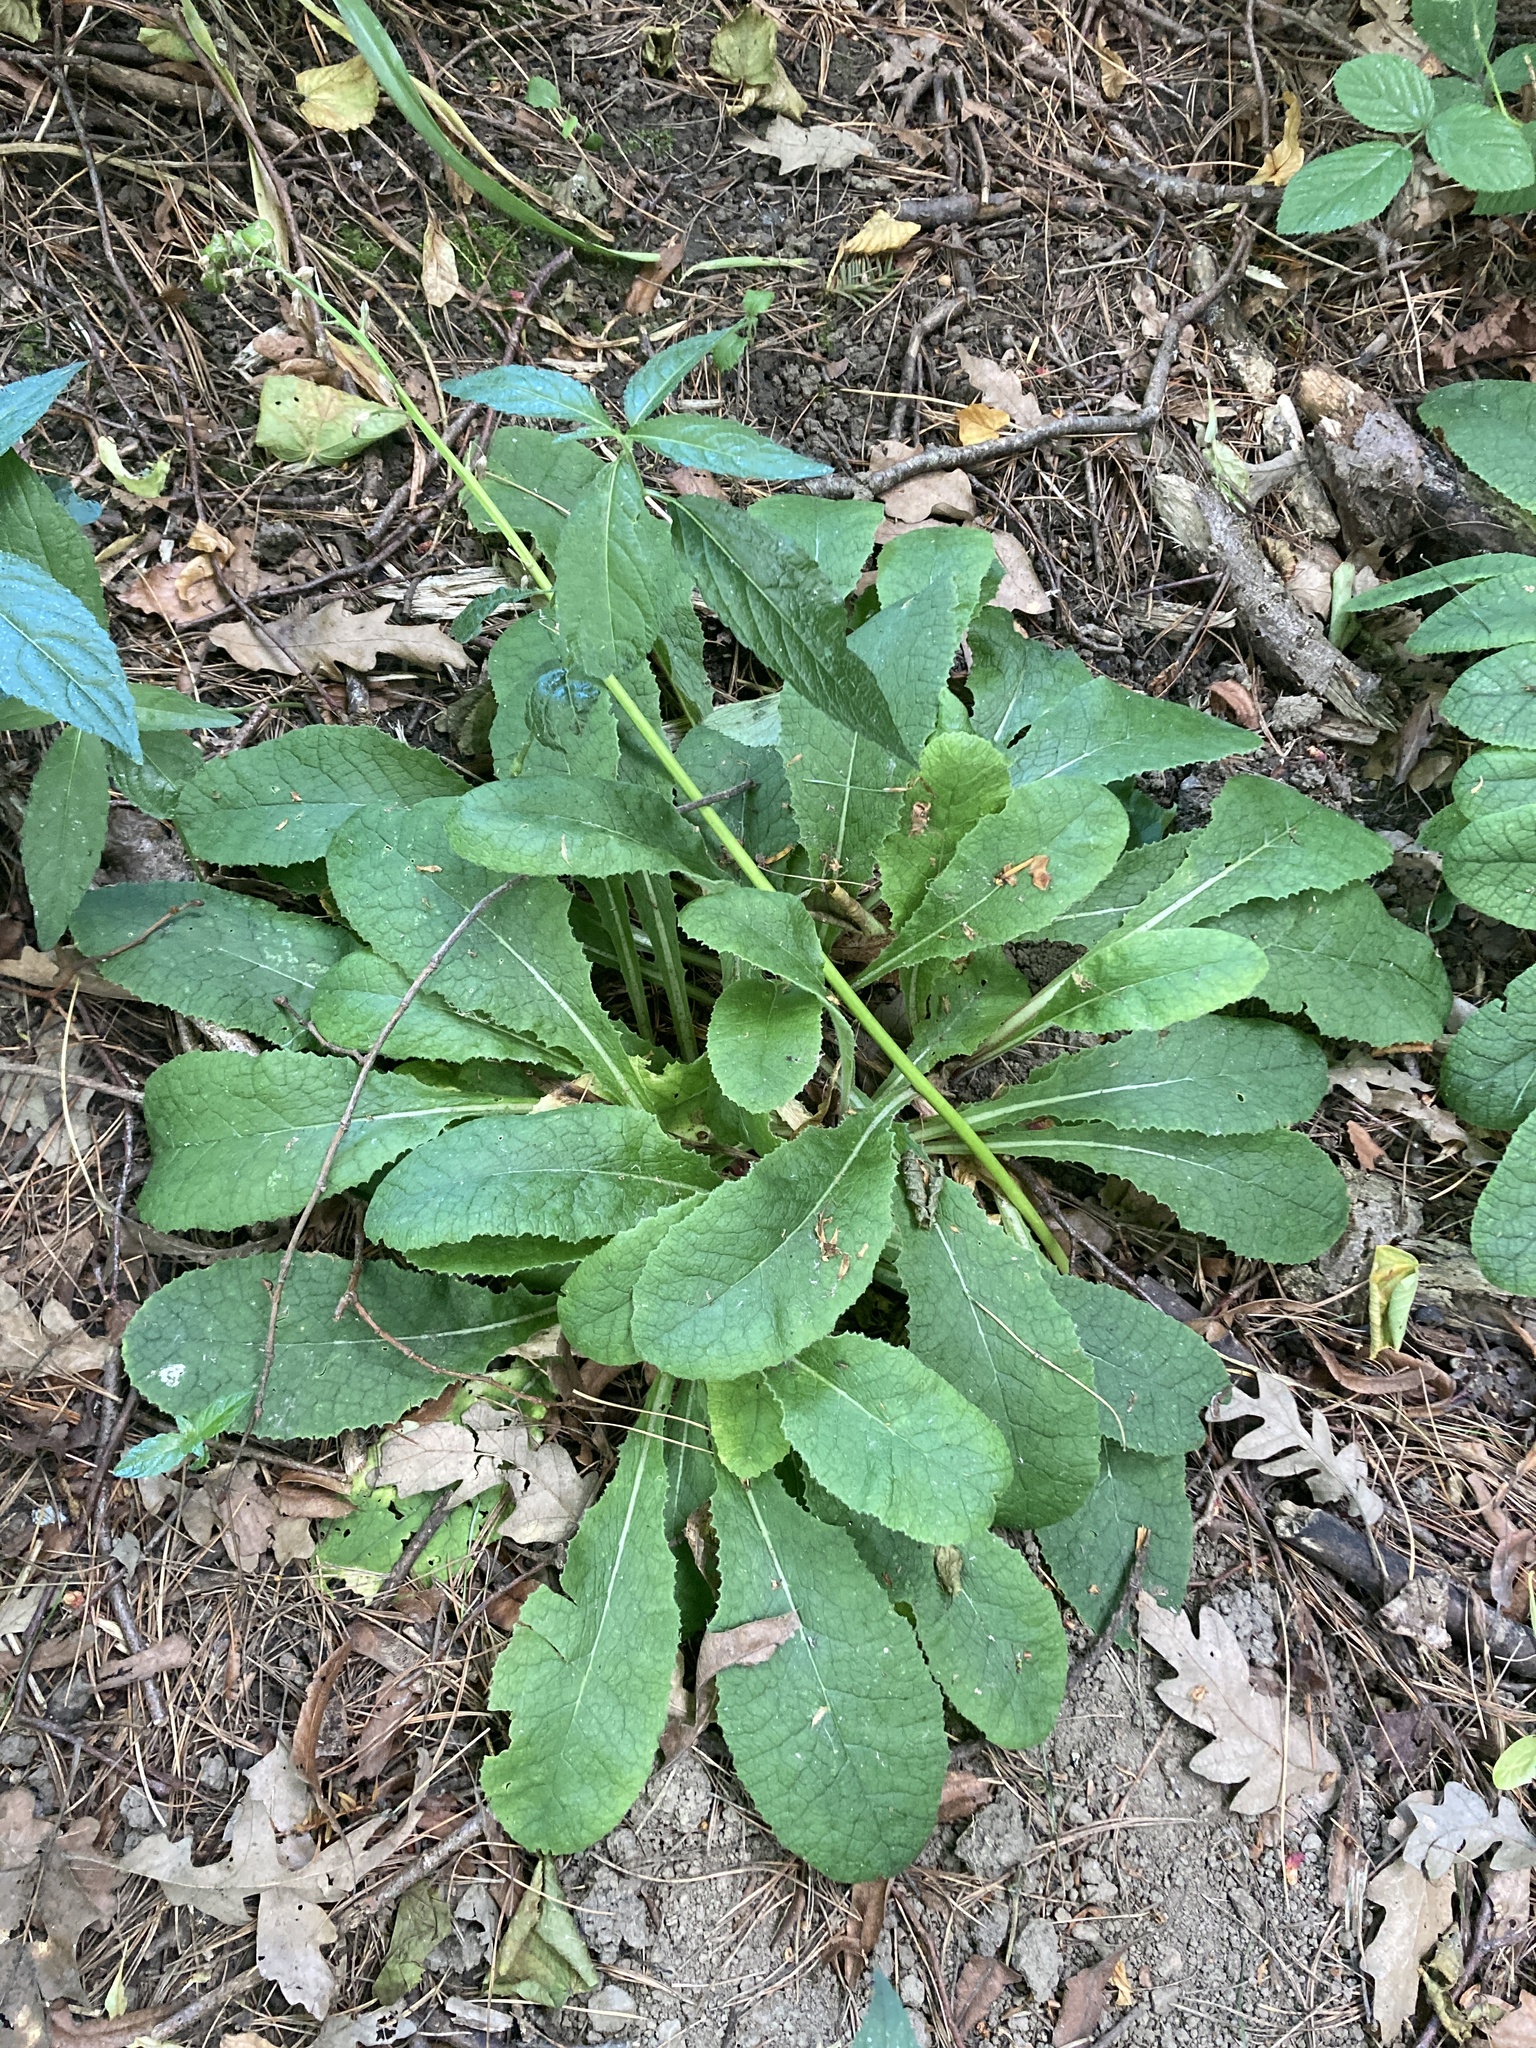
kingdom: Plantae
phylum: Tracheophyta
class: Magnoliopsida
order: Ericales
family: Primulaceae
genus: Primula
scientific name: Primula vulgaris
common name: Primrose
